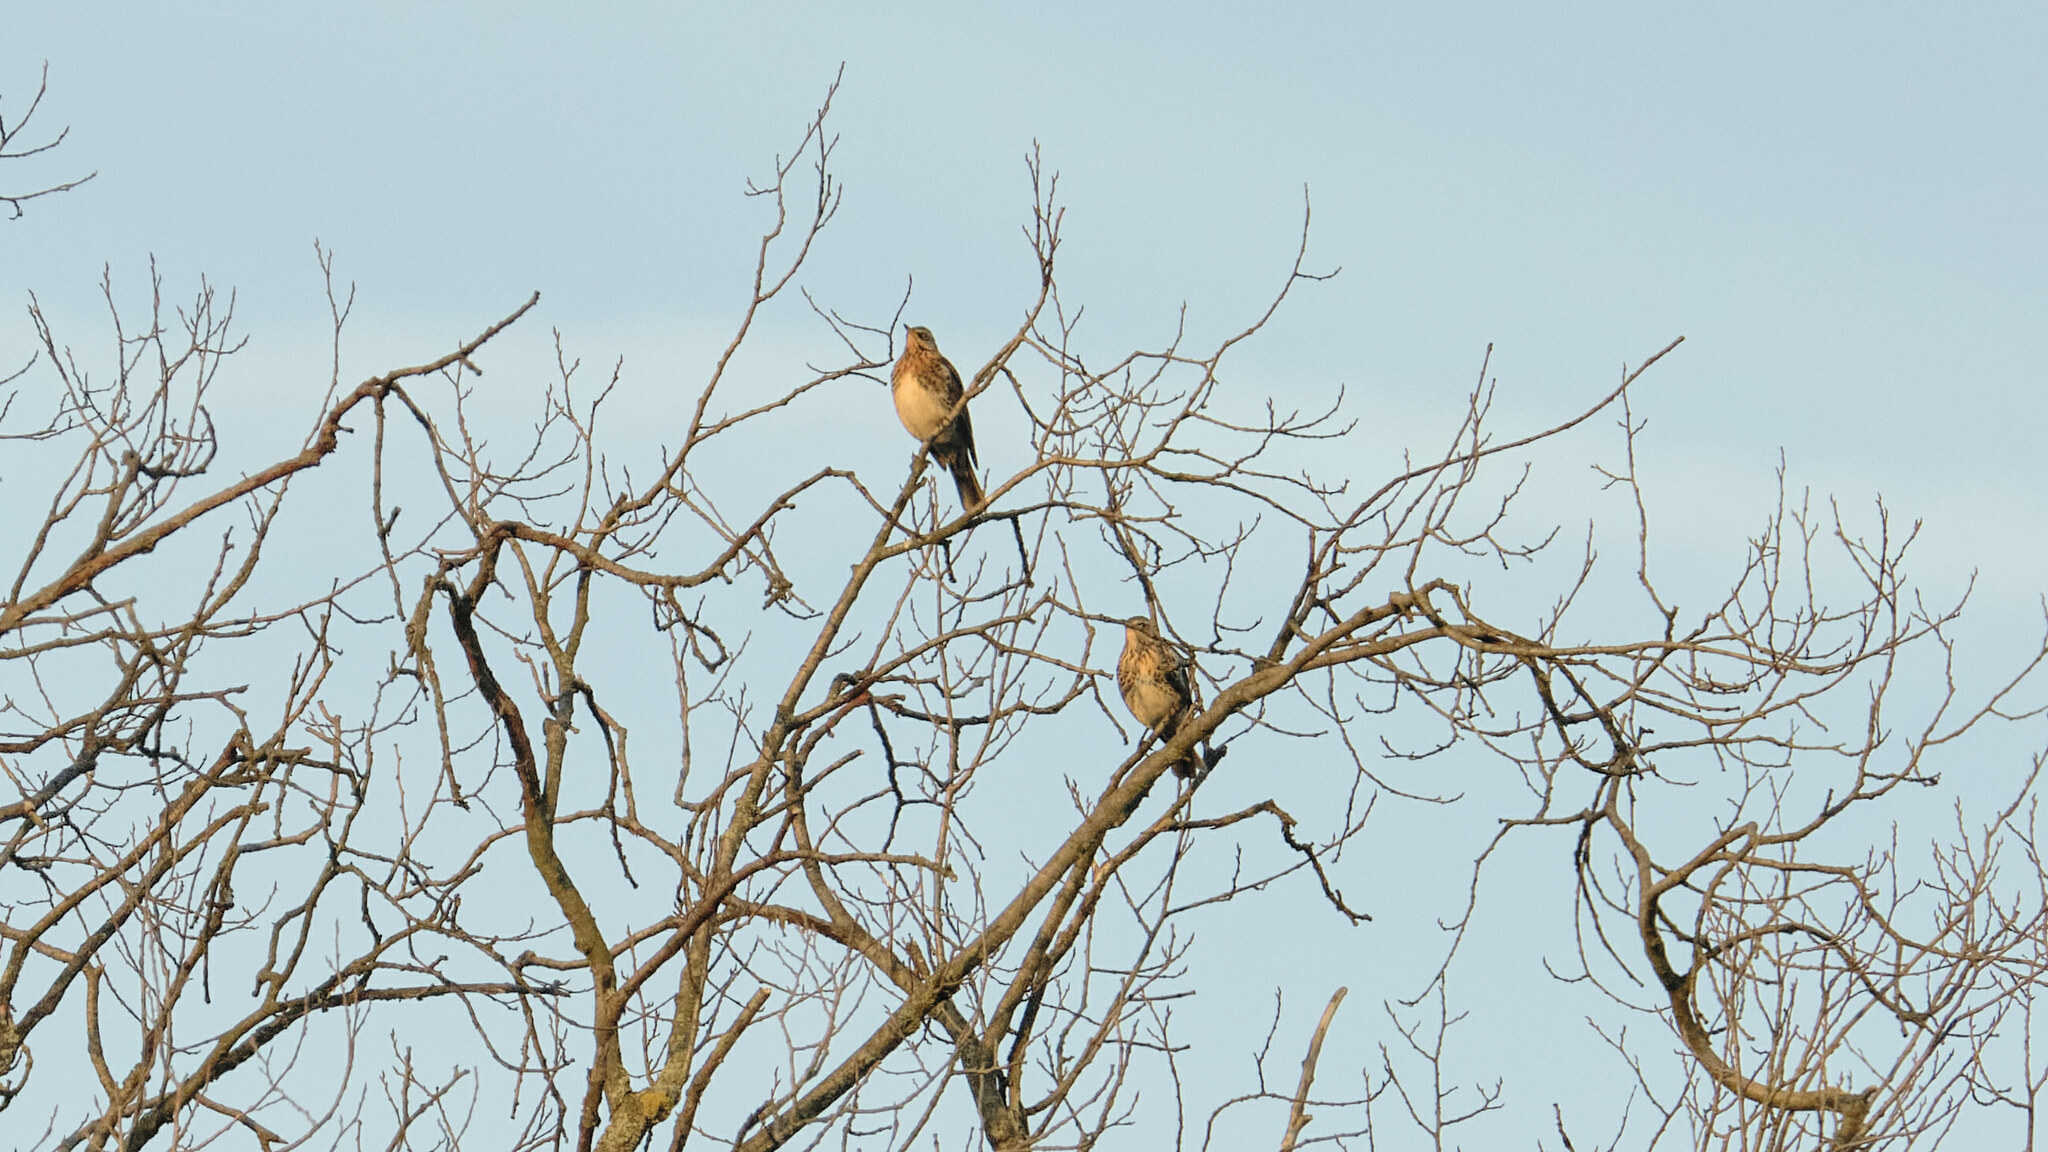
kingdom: Animalia
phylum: Chordata
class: Aves
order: Passeriformes
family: Turdidae
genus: Turdus
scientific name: Turdus pilaris
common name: Fieldfare
